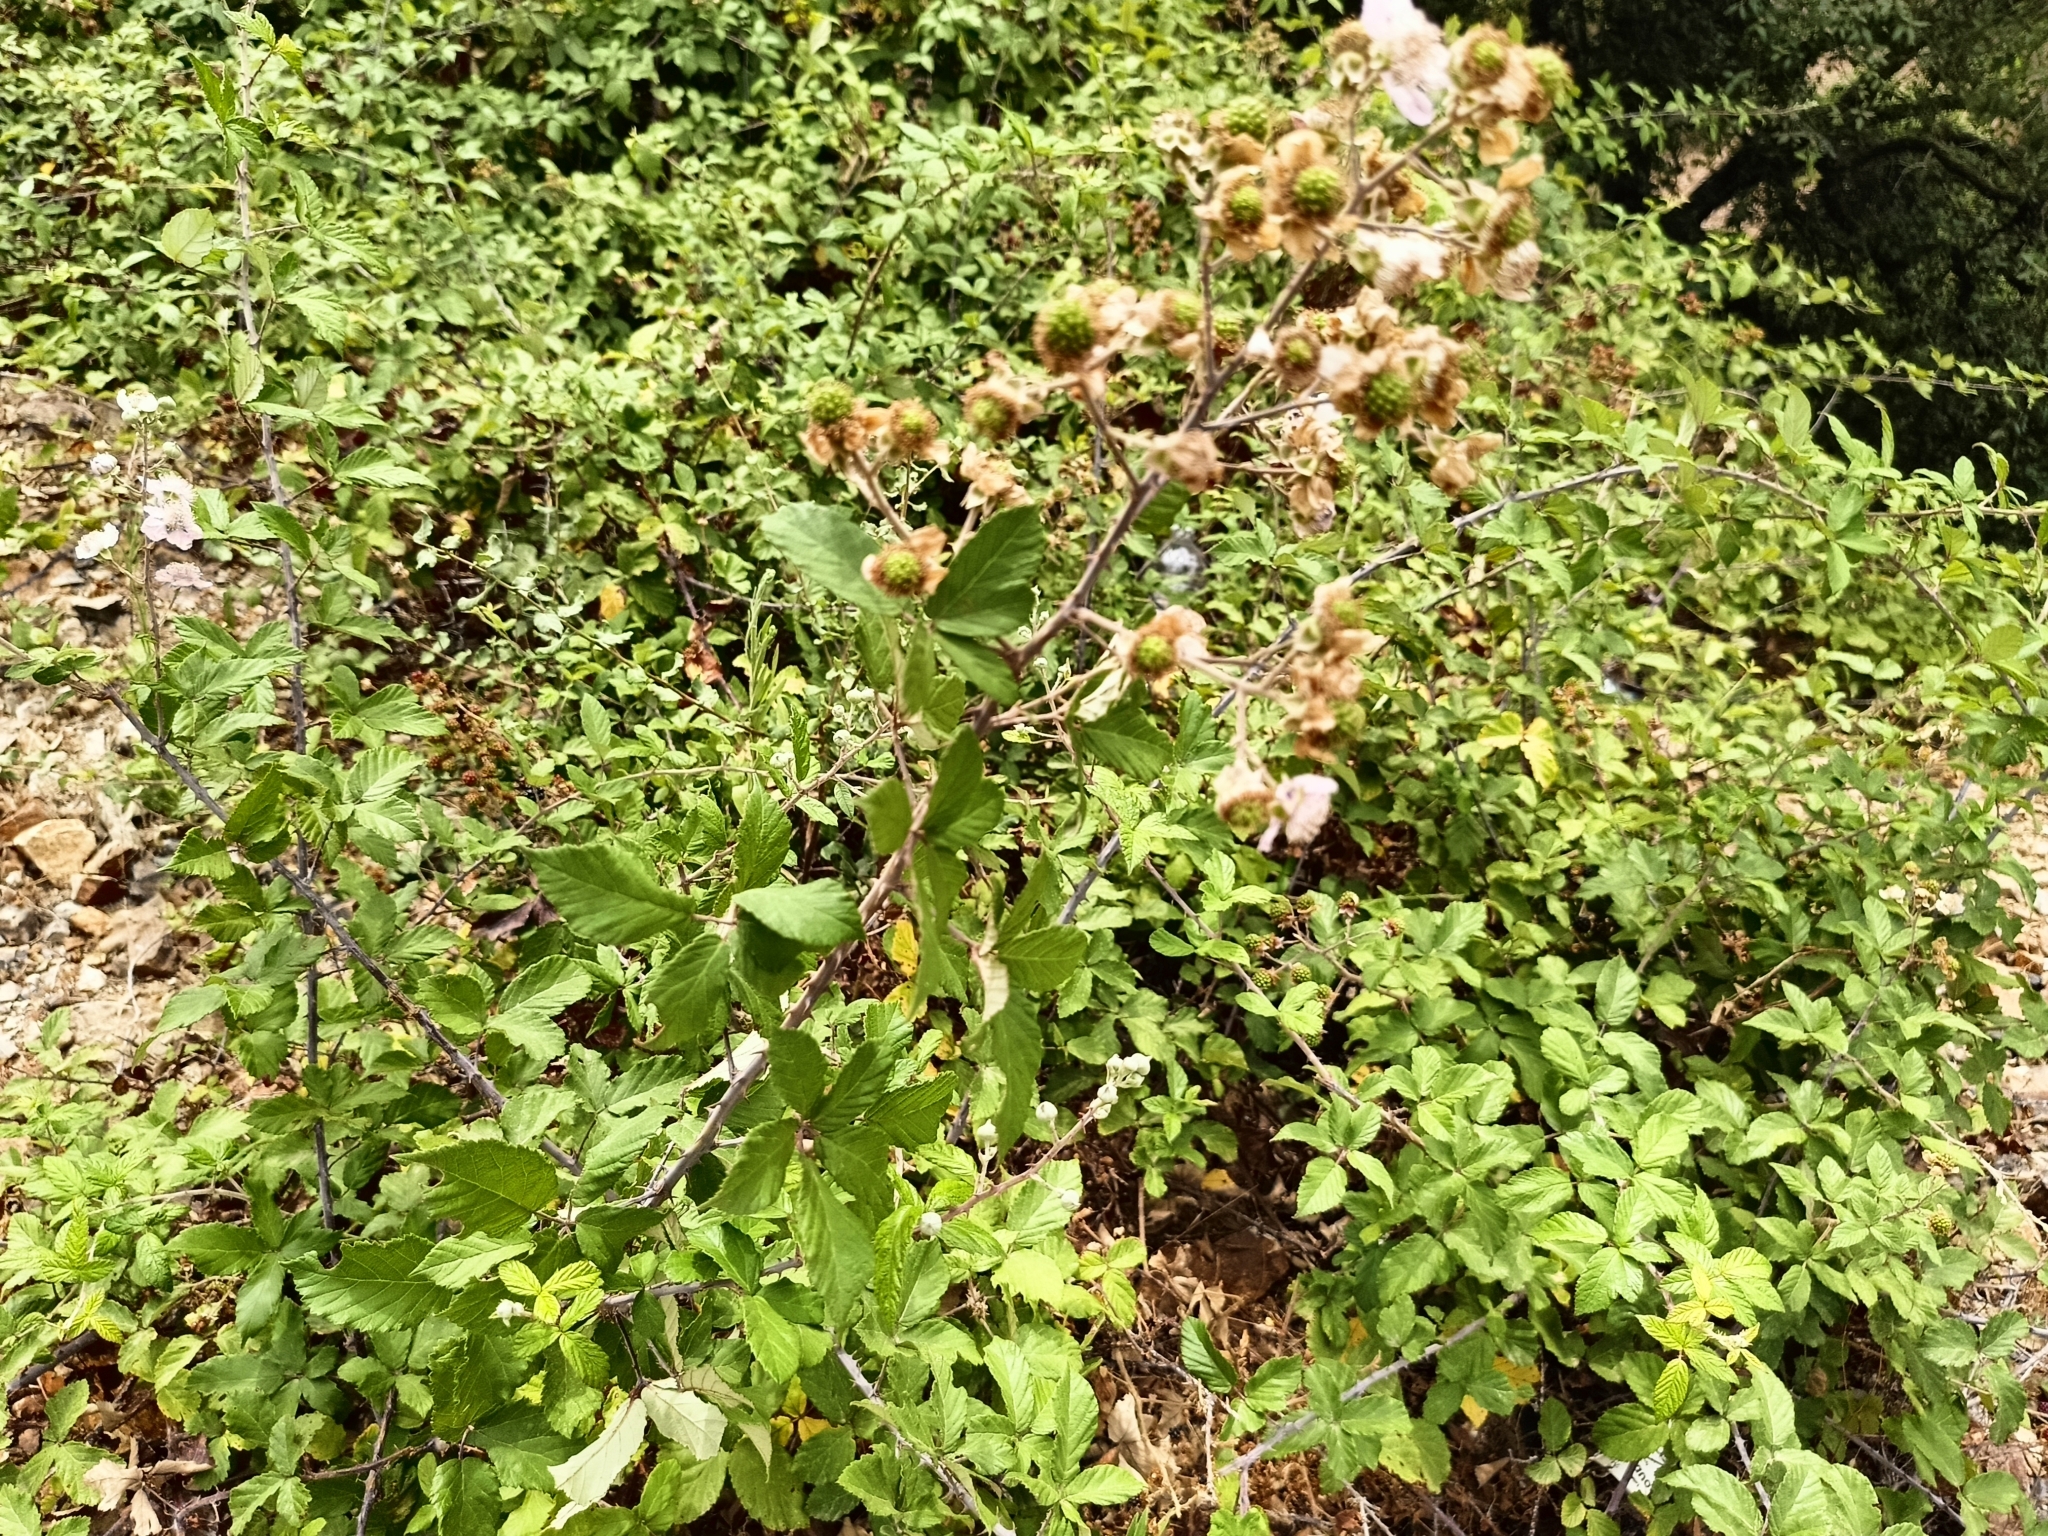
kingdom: Plantae
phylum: Tracheophyta
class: Magnoliopsida
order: Rosales
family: Rosaceae
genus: Rubus
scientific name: Rubus ulmifolius
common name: Elmleaf blackberry
